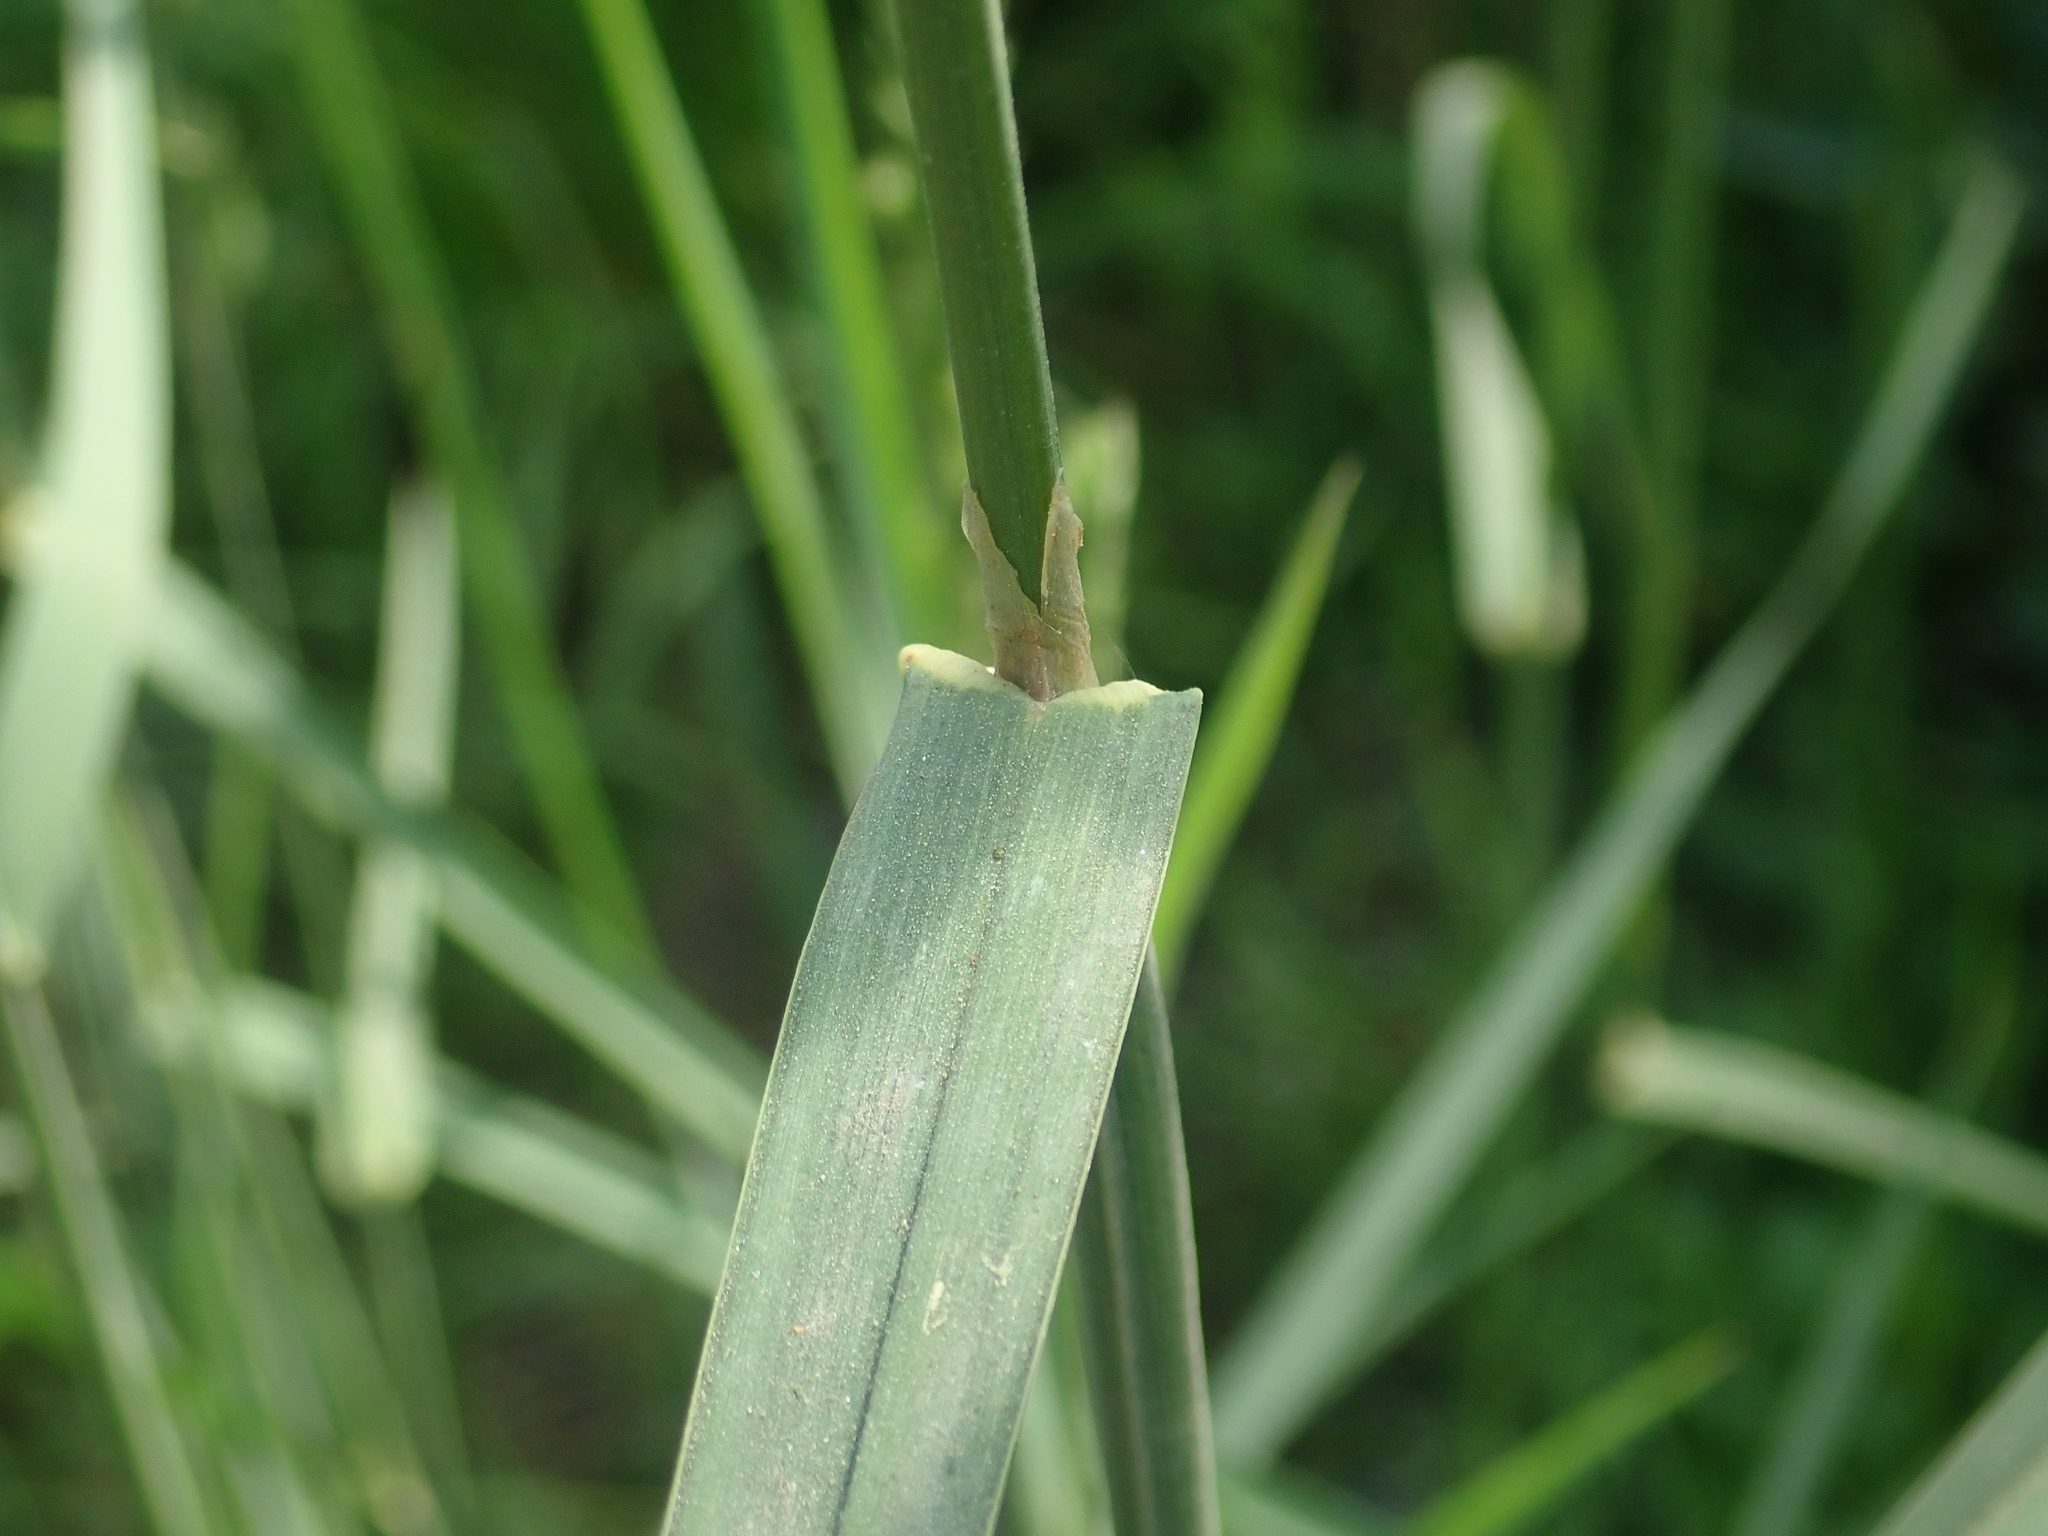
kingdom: Plantae
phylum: Tracheophyta
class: Liliopsida
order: Poales
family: Poaceae
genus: Dactylis
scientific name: Dactylis glomerata
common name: Orchardgrass
